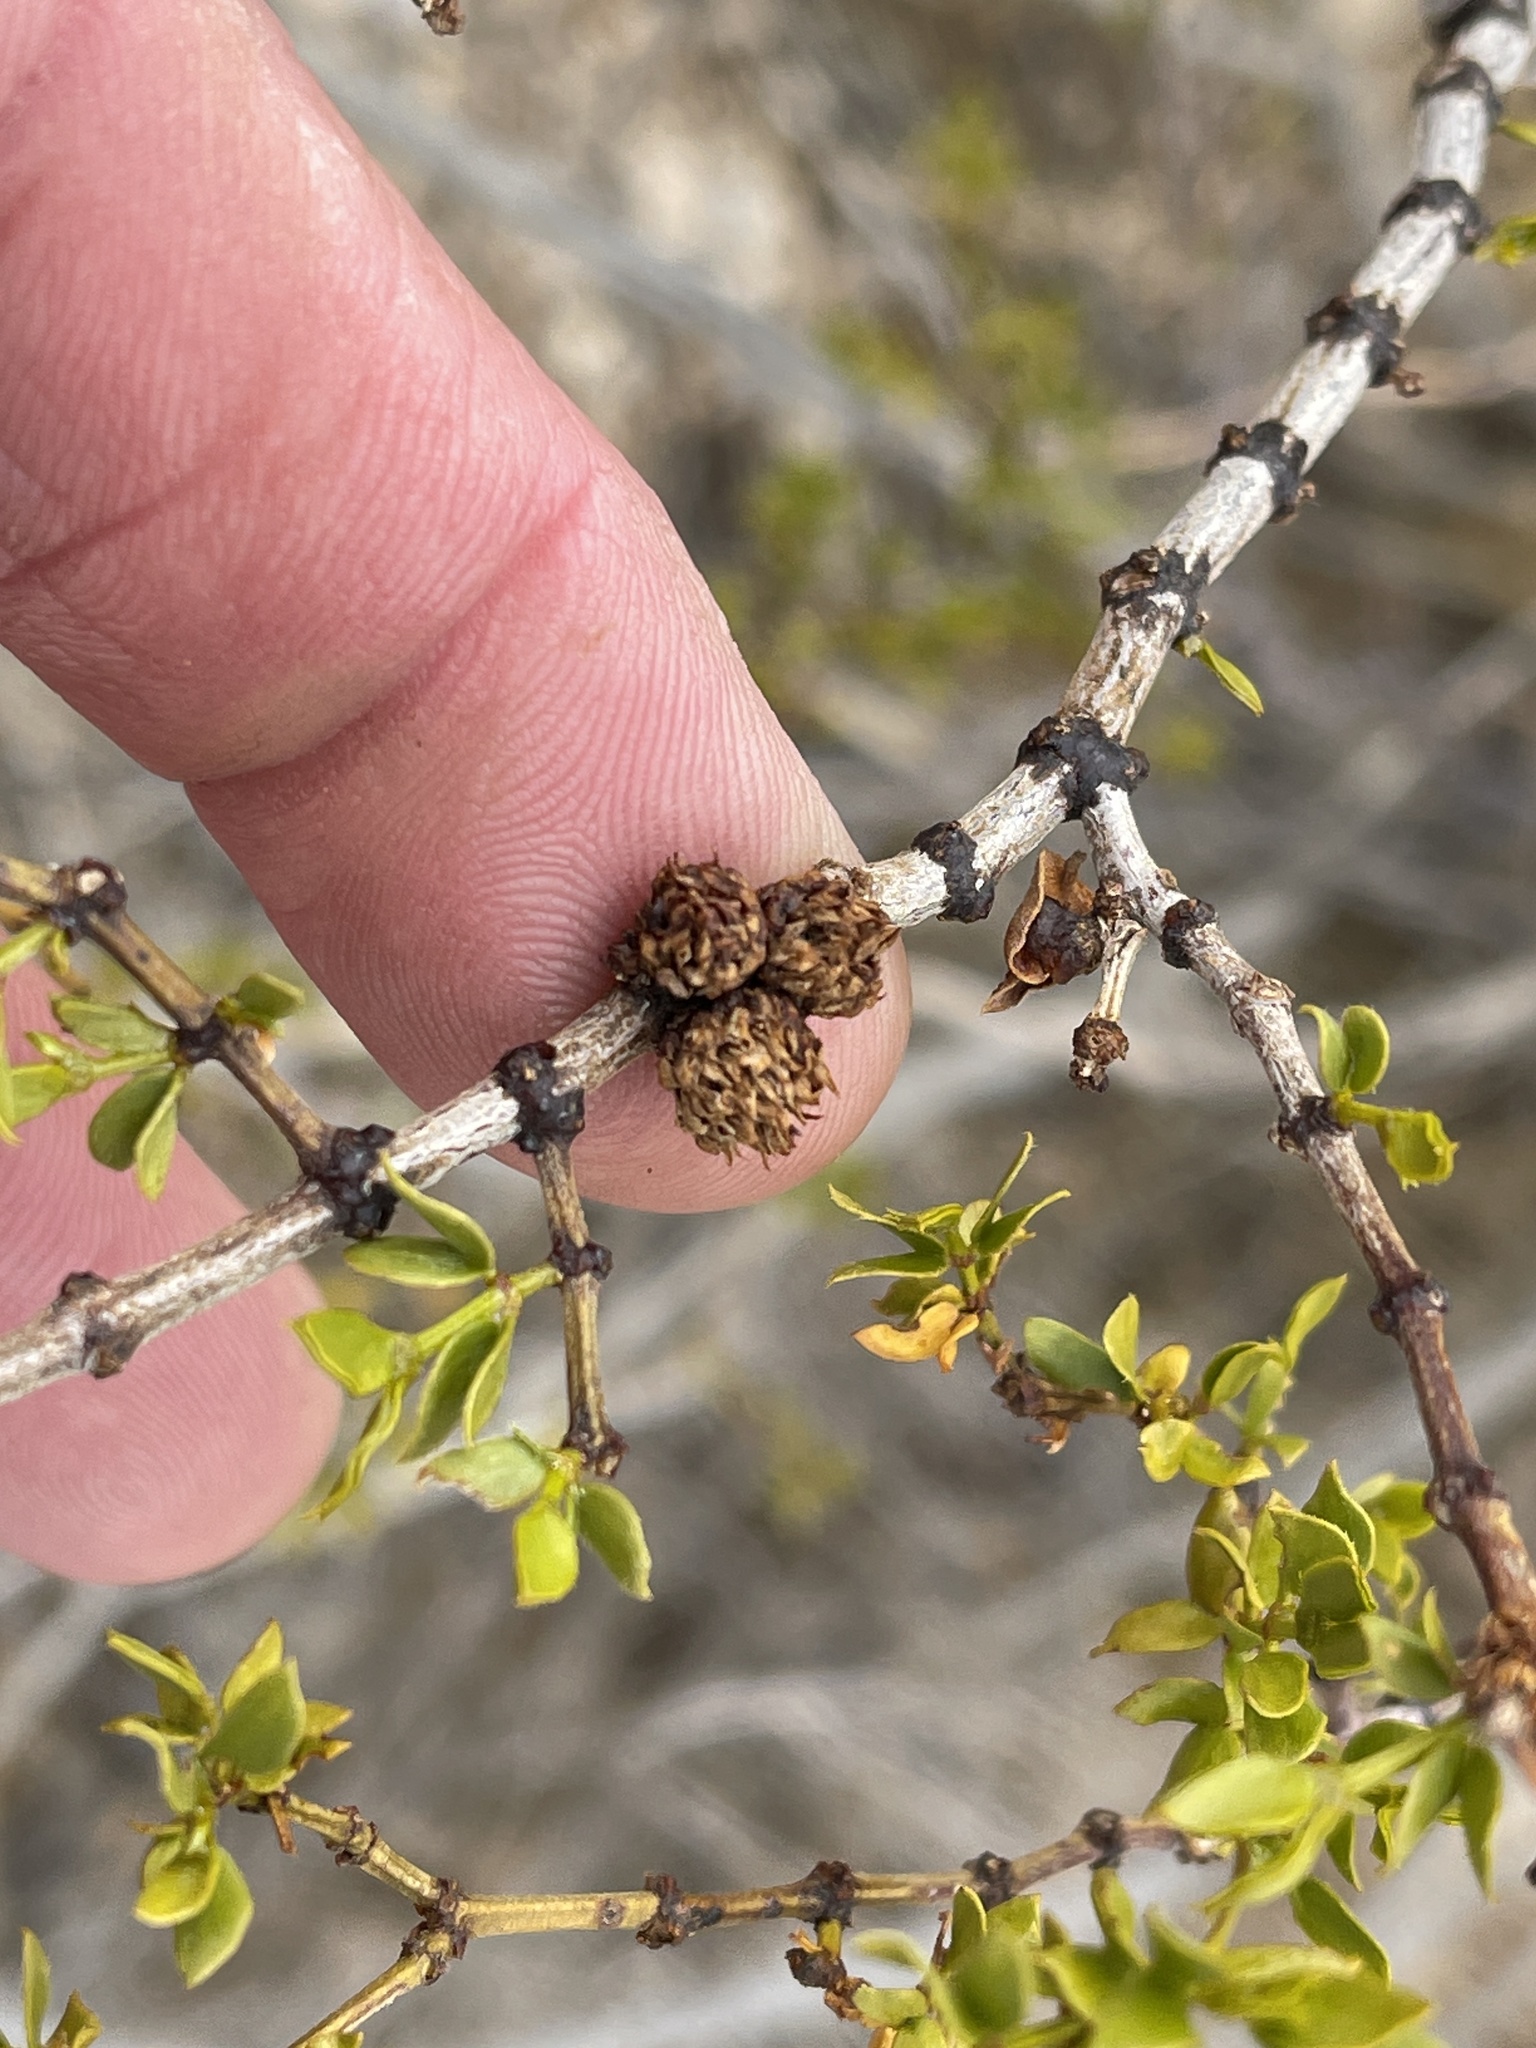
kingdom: Animalia
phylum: Arthropoda
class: Insecta
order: Diptera
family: Cecidomyiidae
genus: Asphondylia
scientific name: Asphondylia rosetta
